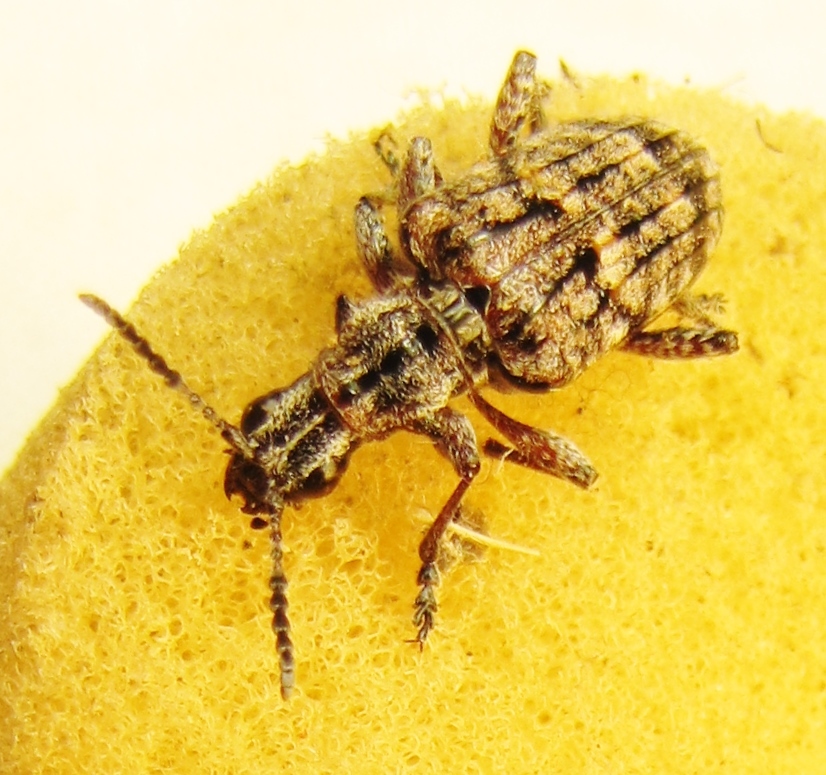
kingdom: Animalia
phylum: Arthropoda
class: Insecta
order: Coleoptera
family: Cerambycidae
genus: Rhagium
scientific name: Rhagium inquisitor
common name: Ribbed pine borer
